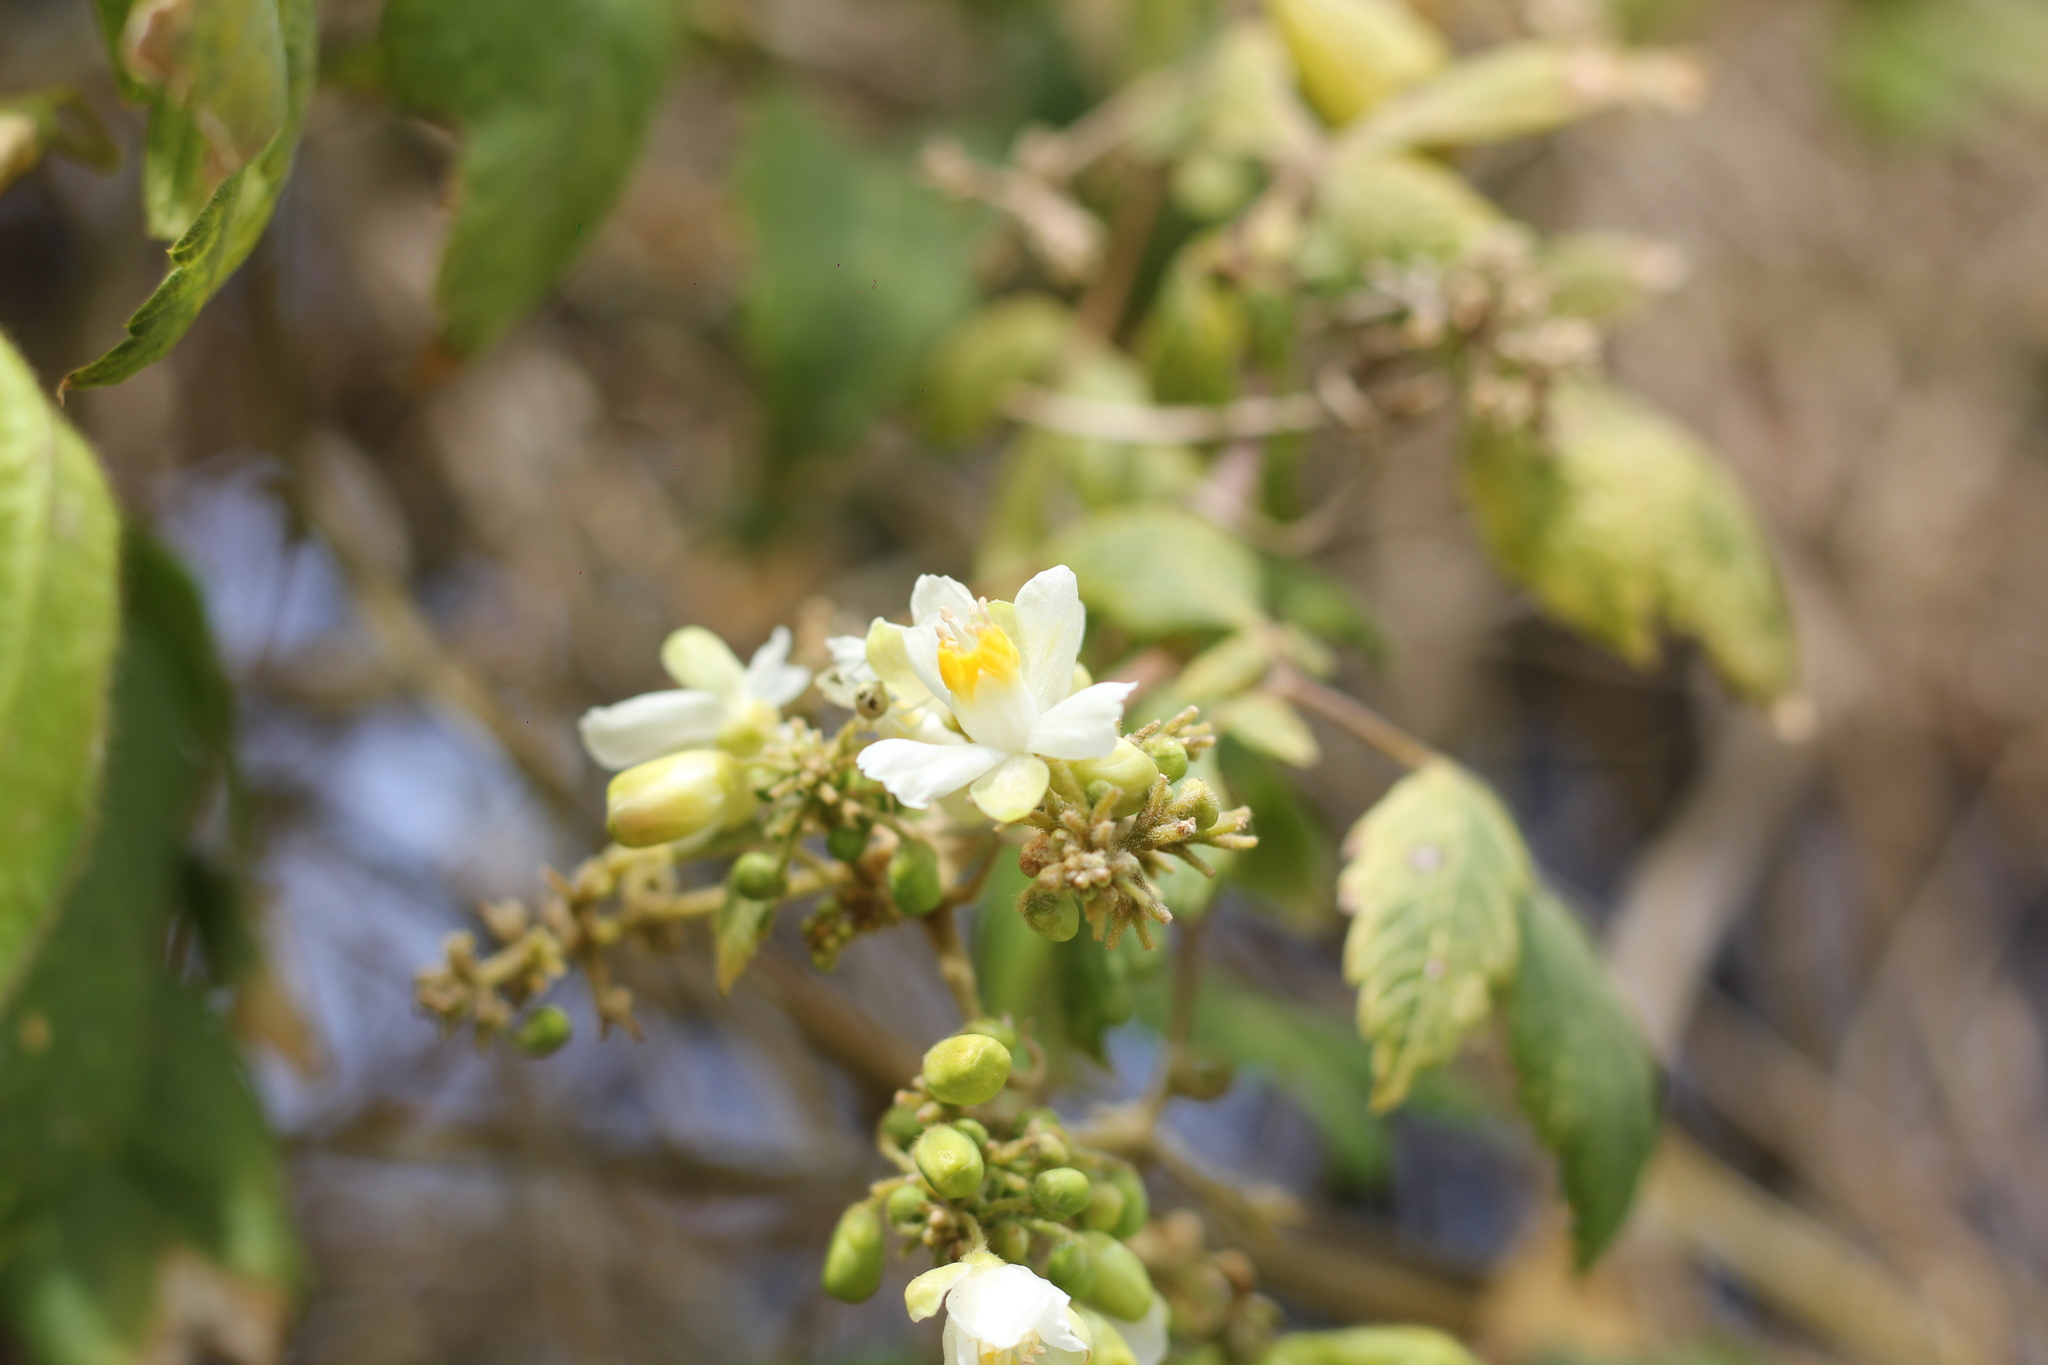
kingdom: Plantae
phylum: Tracheophyta
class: Magnoliopsida
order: Sapindales
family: Sapindaceae
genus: Cardiospermum
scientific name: Cardiospermum grandiflorum
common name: Balloon vine
